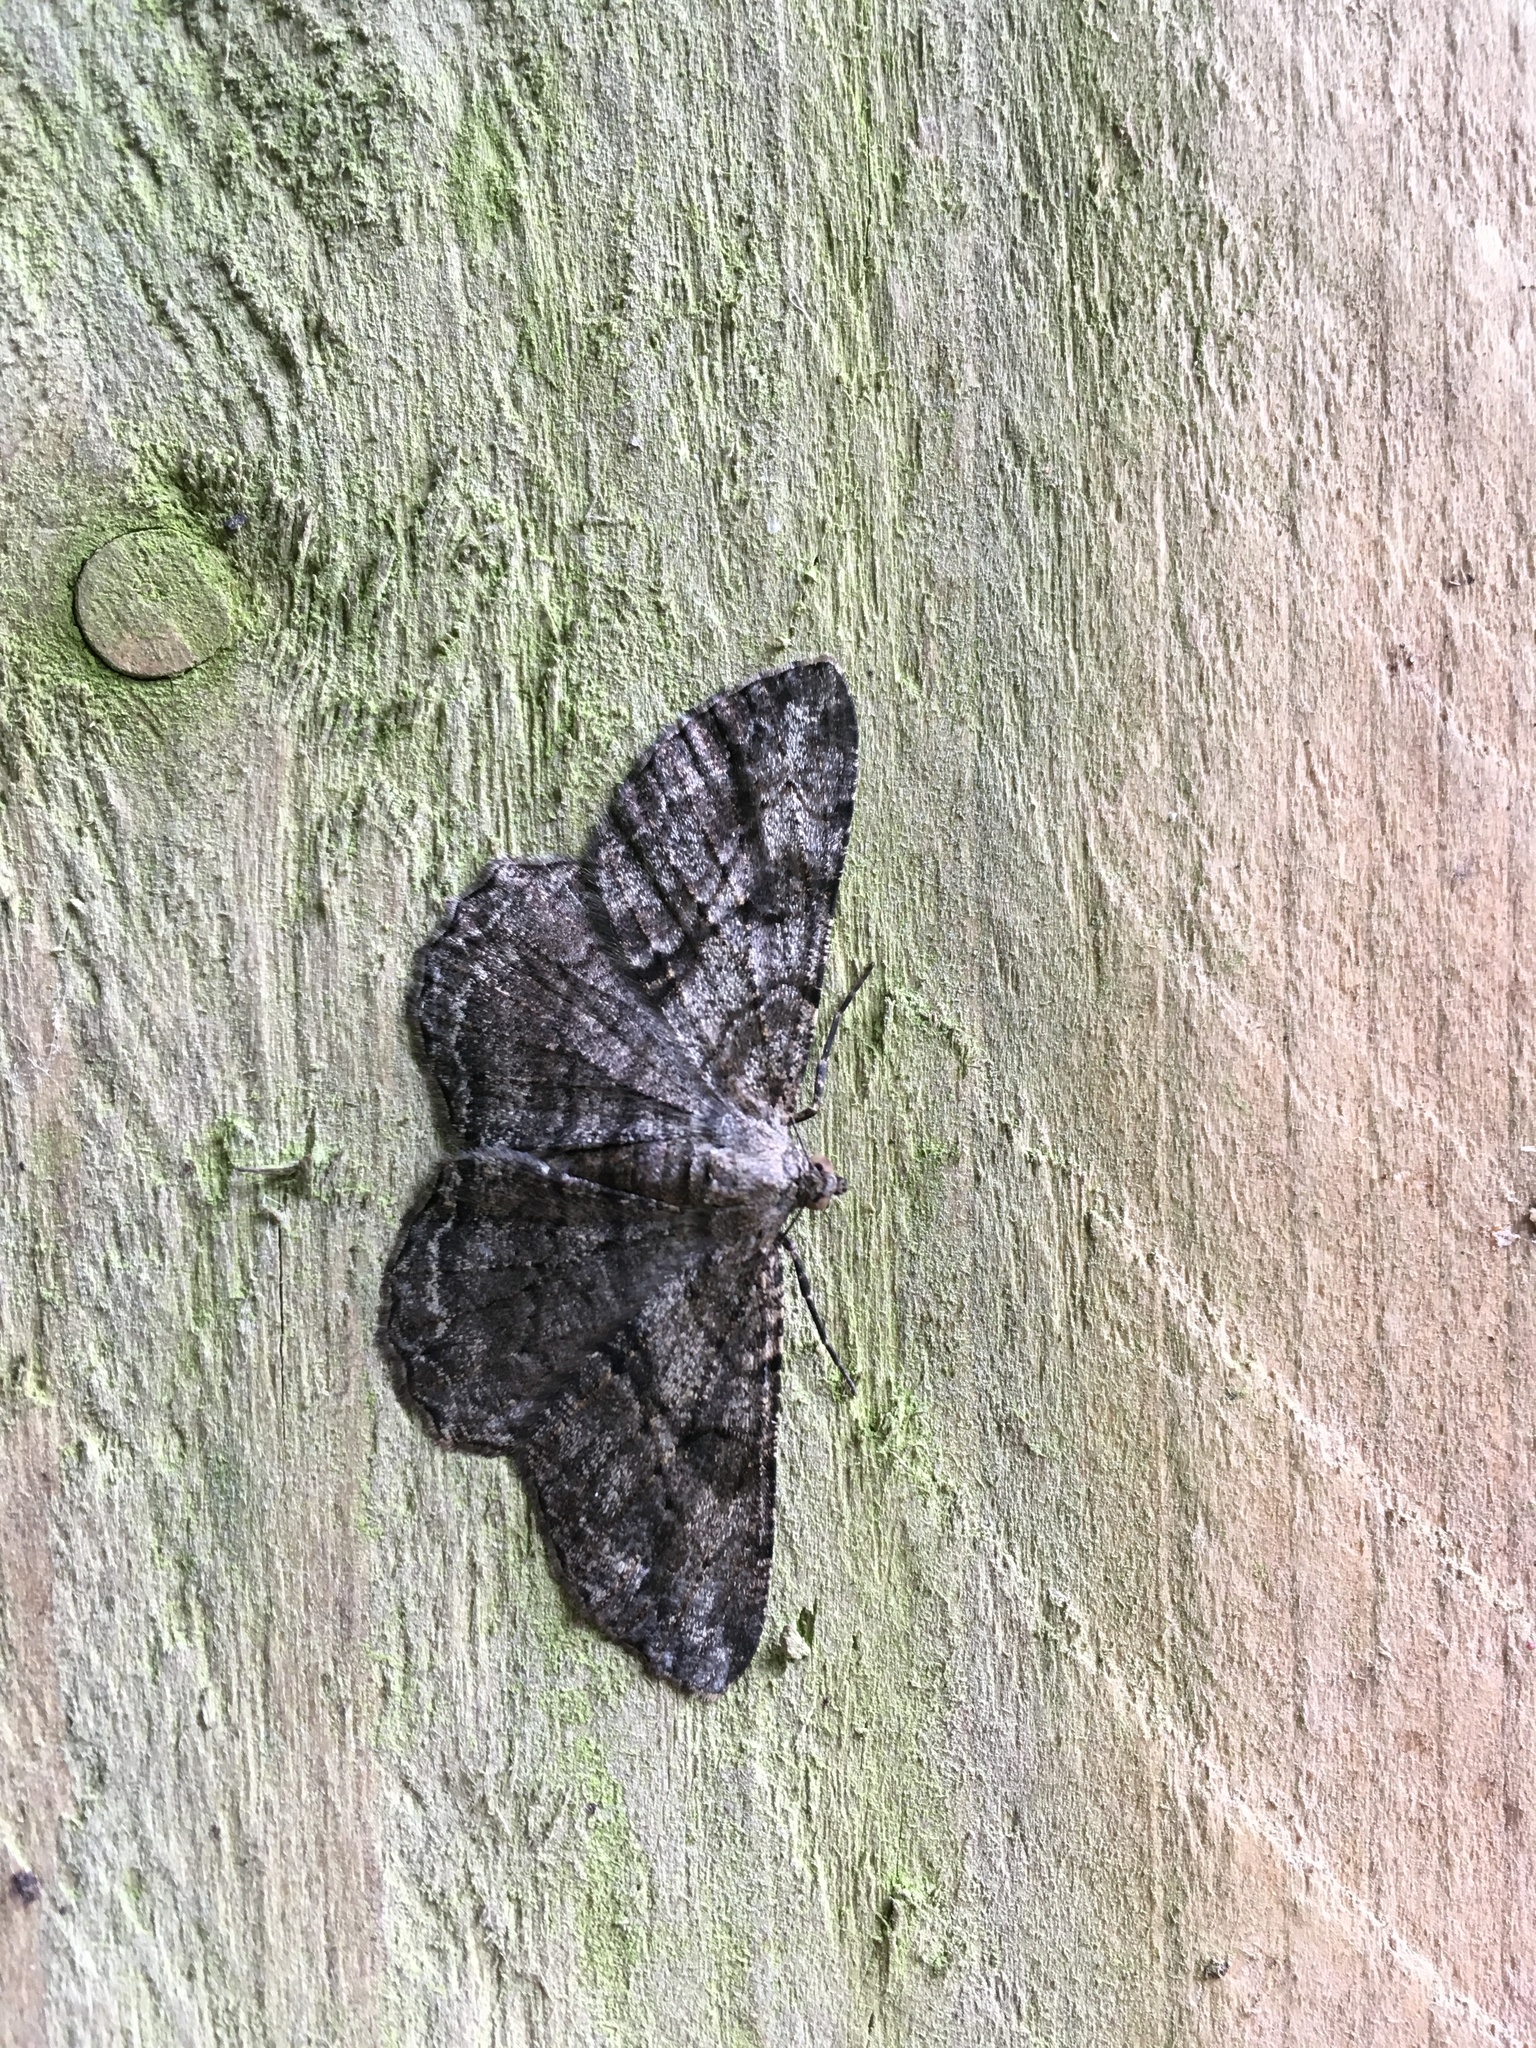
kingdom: Animalia
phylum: Arthropoda
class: Insecta
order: Lepidoptera
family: Geometridae
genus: Peribatodes
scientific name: Peribatodes rhomboidaria
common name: Willow beauty
